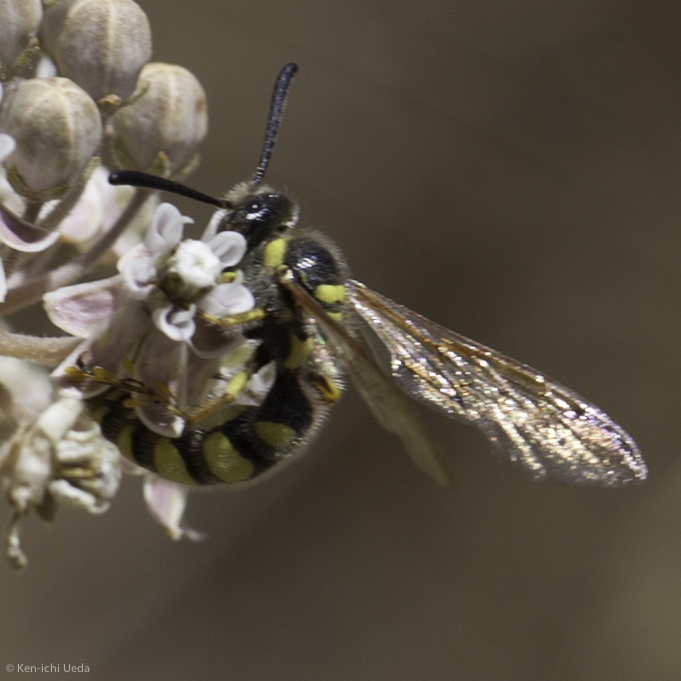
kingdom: Animalia
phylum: Arthropoda
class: Insecta
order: Hymenoptera
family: Sphecidae
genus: Crioscolia
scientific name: Crioscolia
